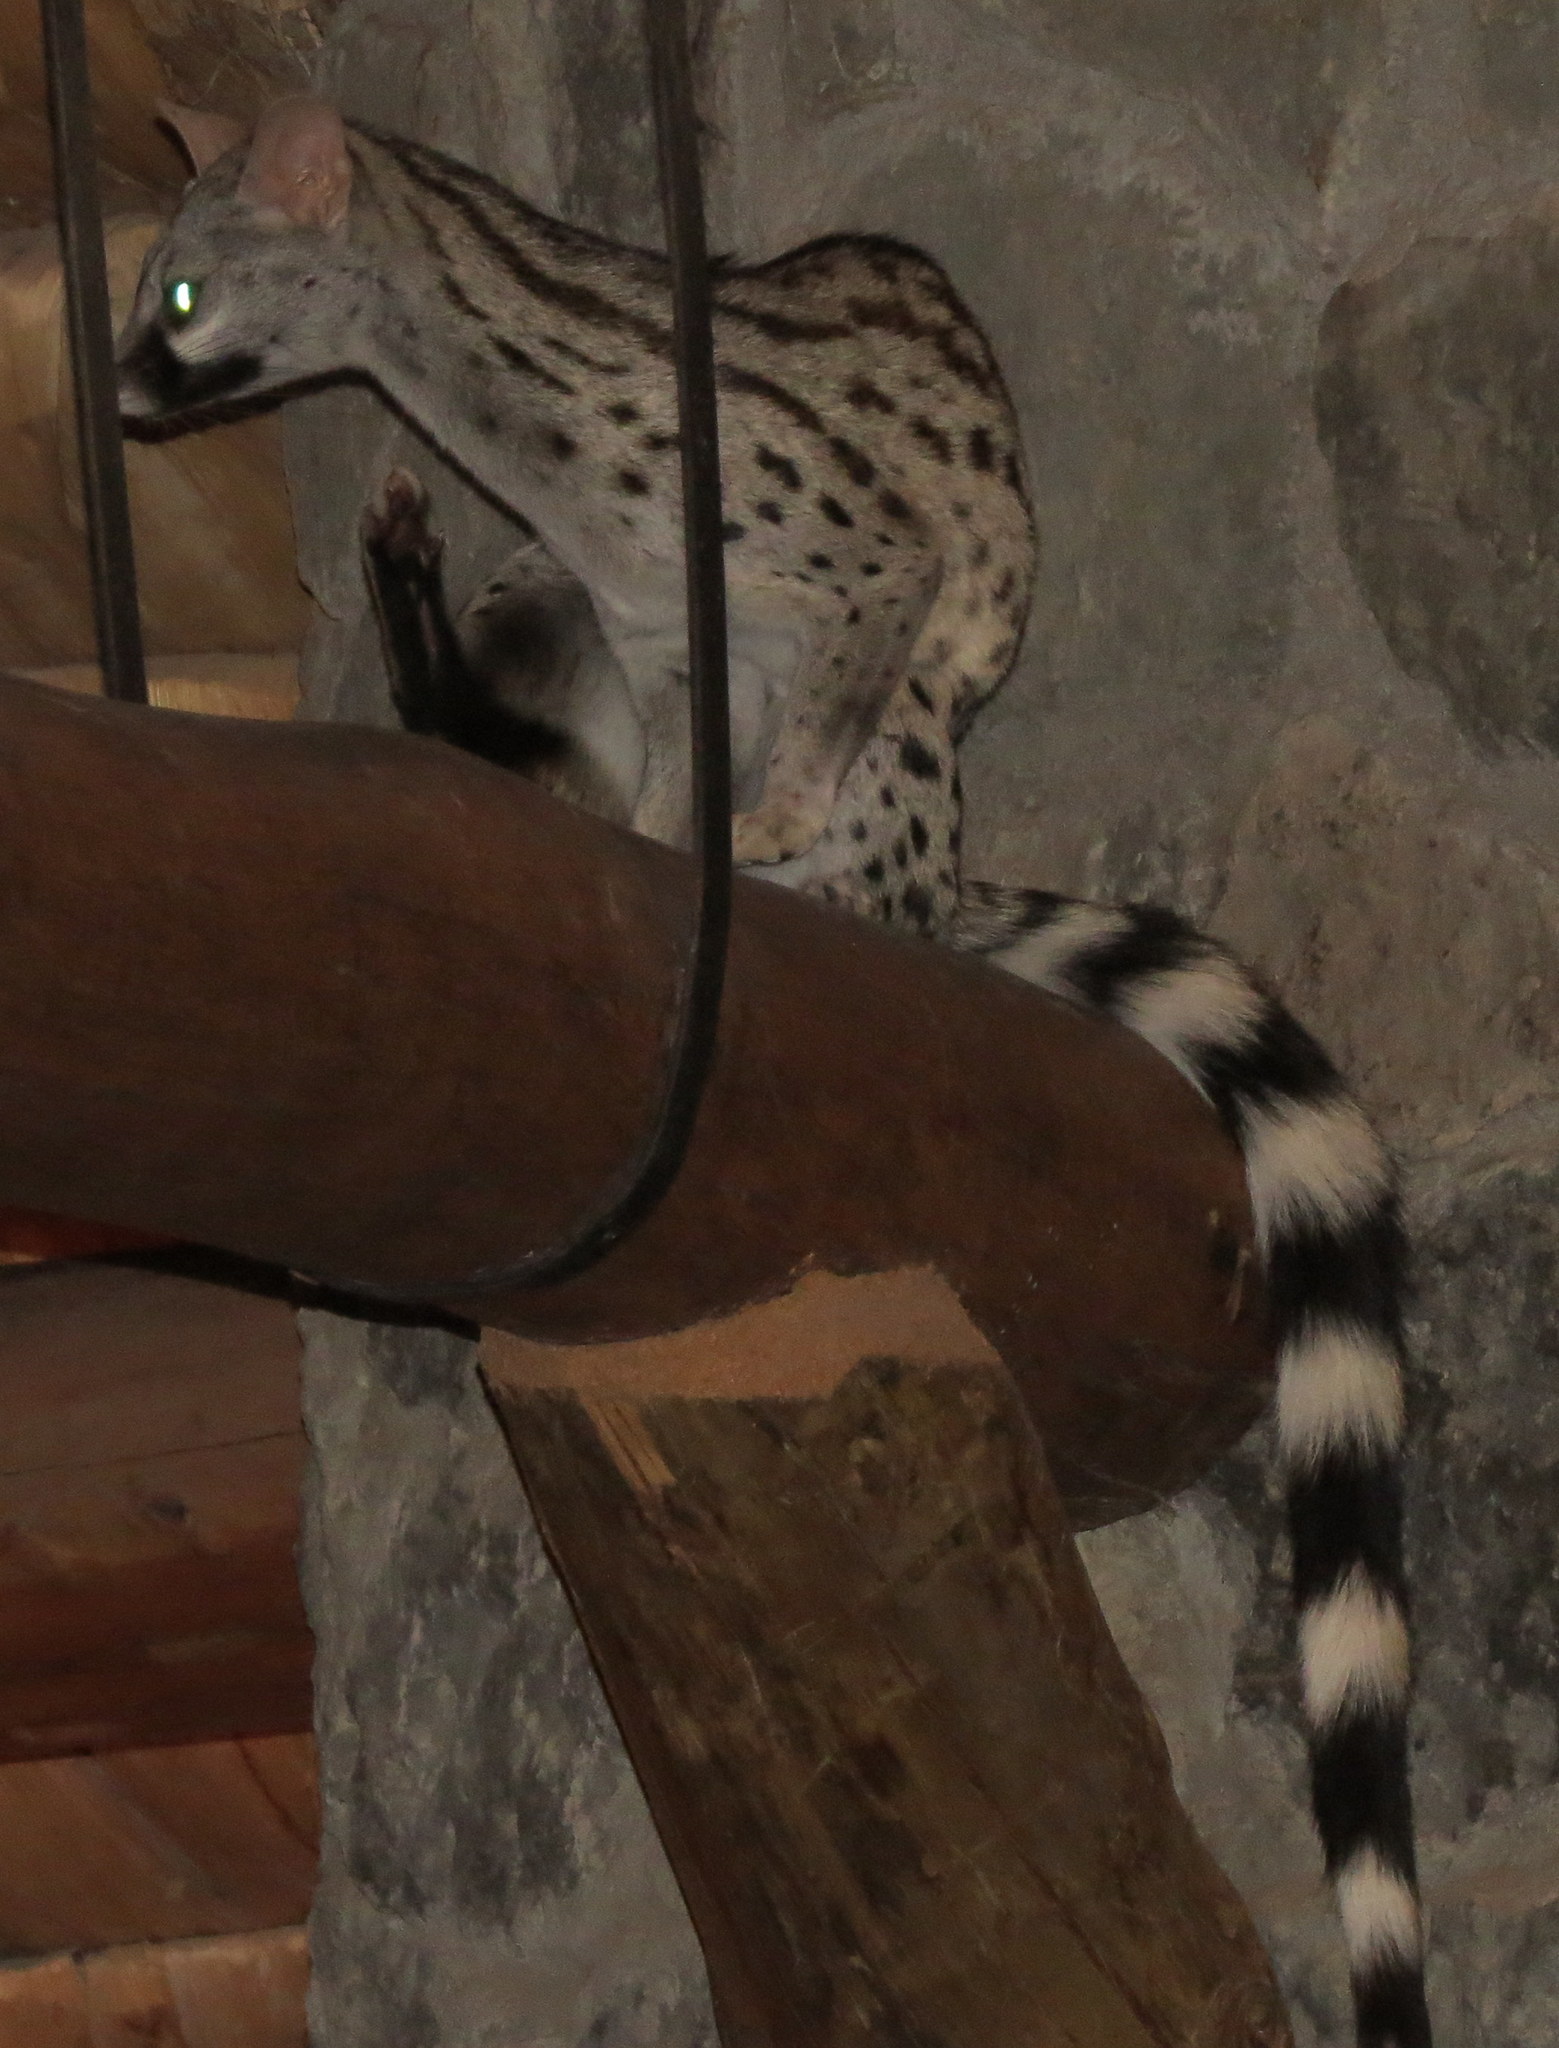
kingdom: Animalia
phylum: Chordata
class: Mammalia
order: Carnivora
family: Viverridae
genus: Genetta
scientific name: Genetta genetta
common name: Common genet
